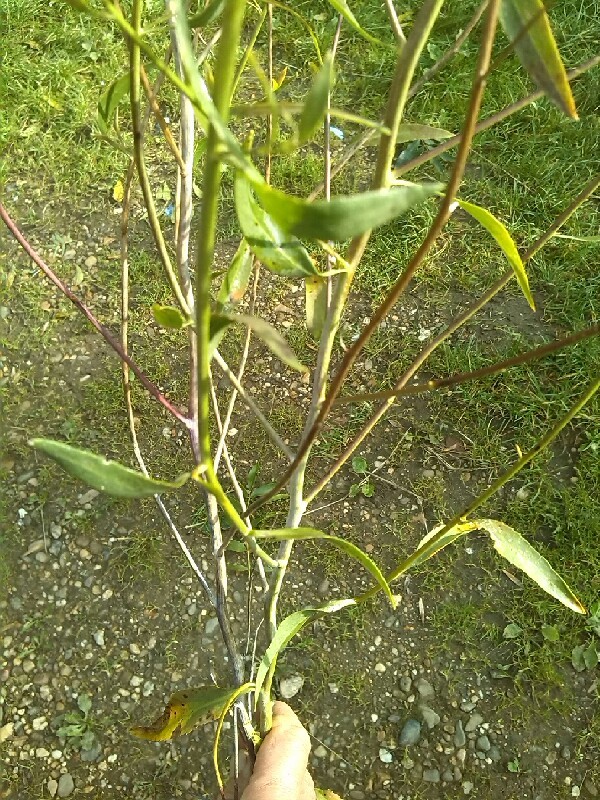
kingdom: Plantae
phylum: Tracheophyta
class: Magnoliopsida
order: Brassicales
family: Brassicaceae
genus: Lepidium
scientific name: Lepidium latifolium
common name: Dittander
